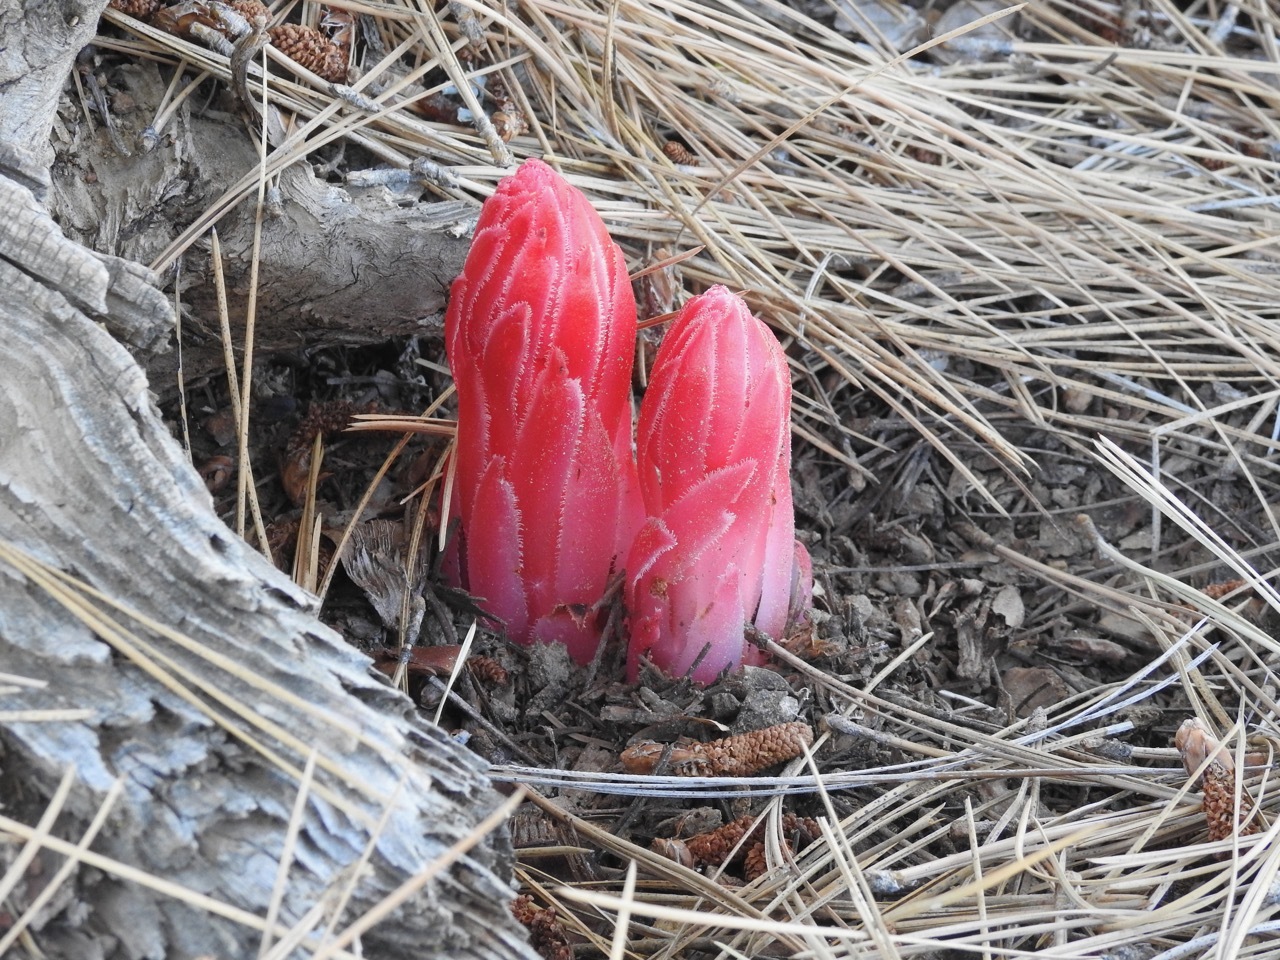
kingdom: Plantae
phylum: Tracheophyta
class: Magnoliopsida
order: Ericales
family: Ericaceae
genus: Sarcodes
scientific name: Sarcodes sanguinea
